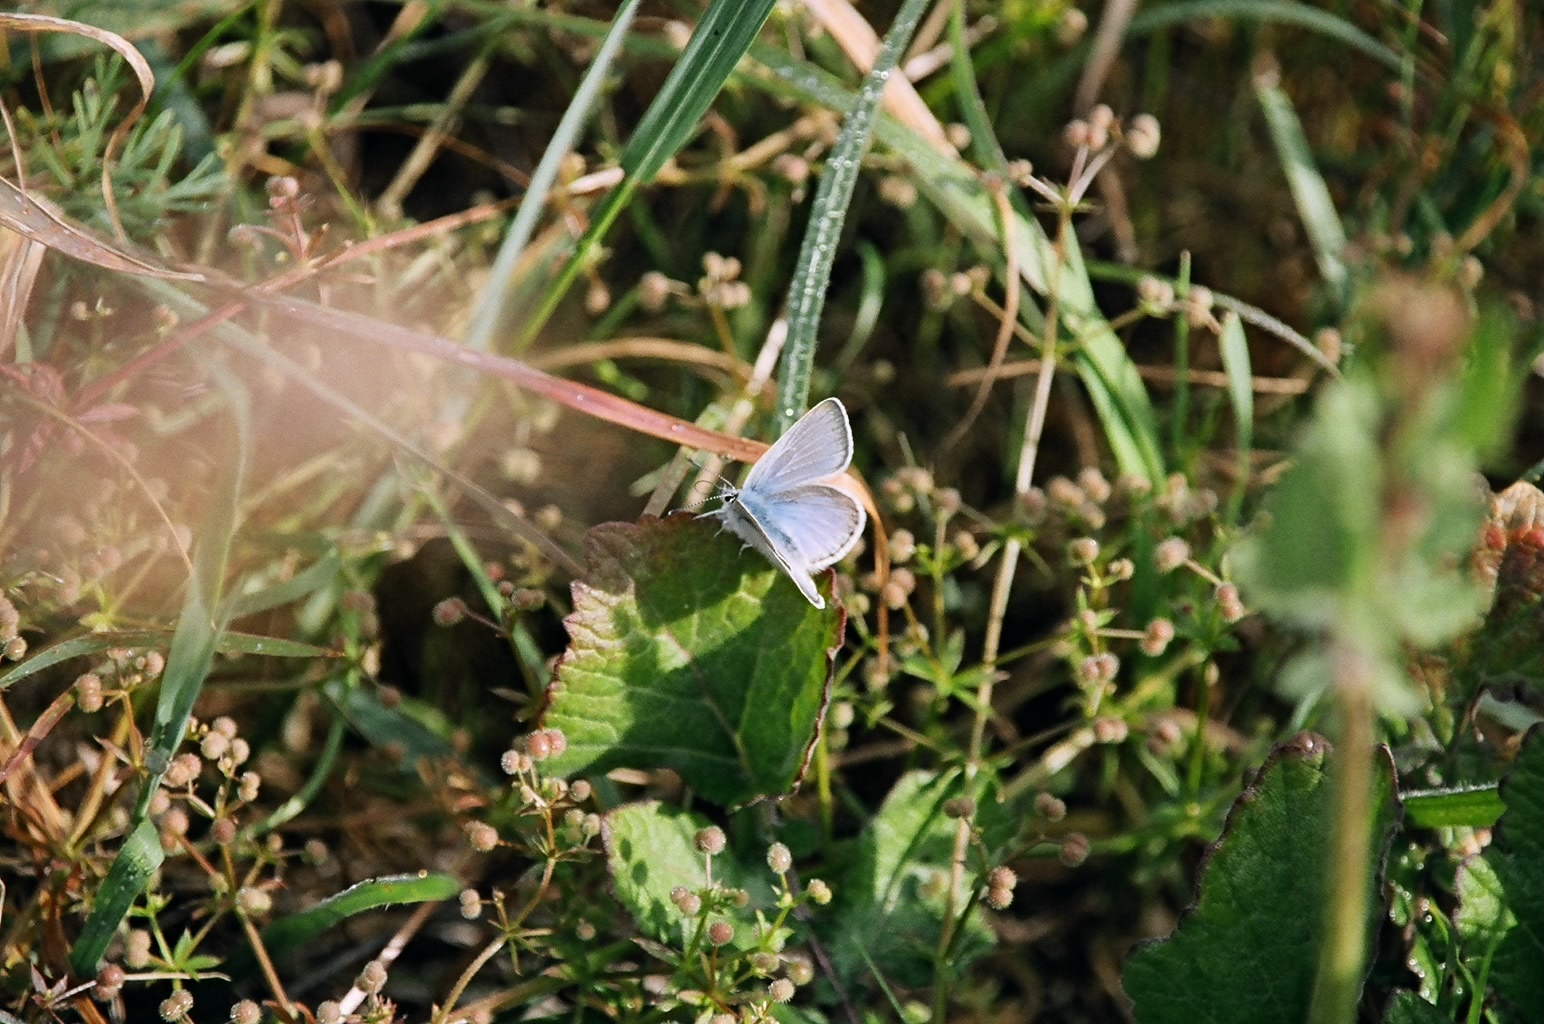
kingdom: Animalia
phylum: Arthropoda
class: Insecta
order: Lepidoptera
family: Lycaenidae
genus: Icaricia
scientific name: Icaricia icarioides
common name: Boisduval's blue
